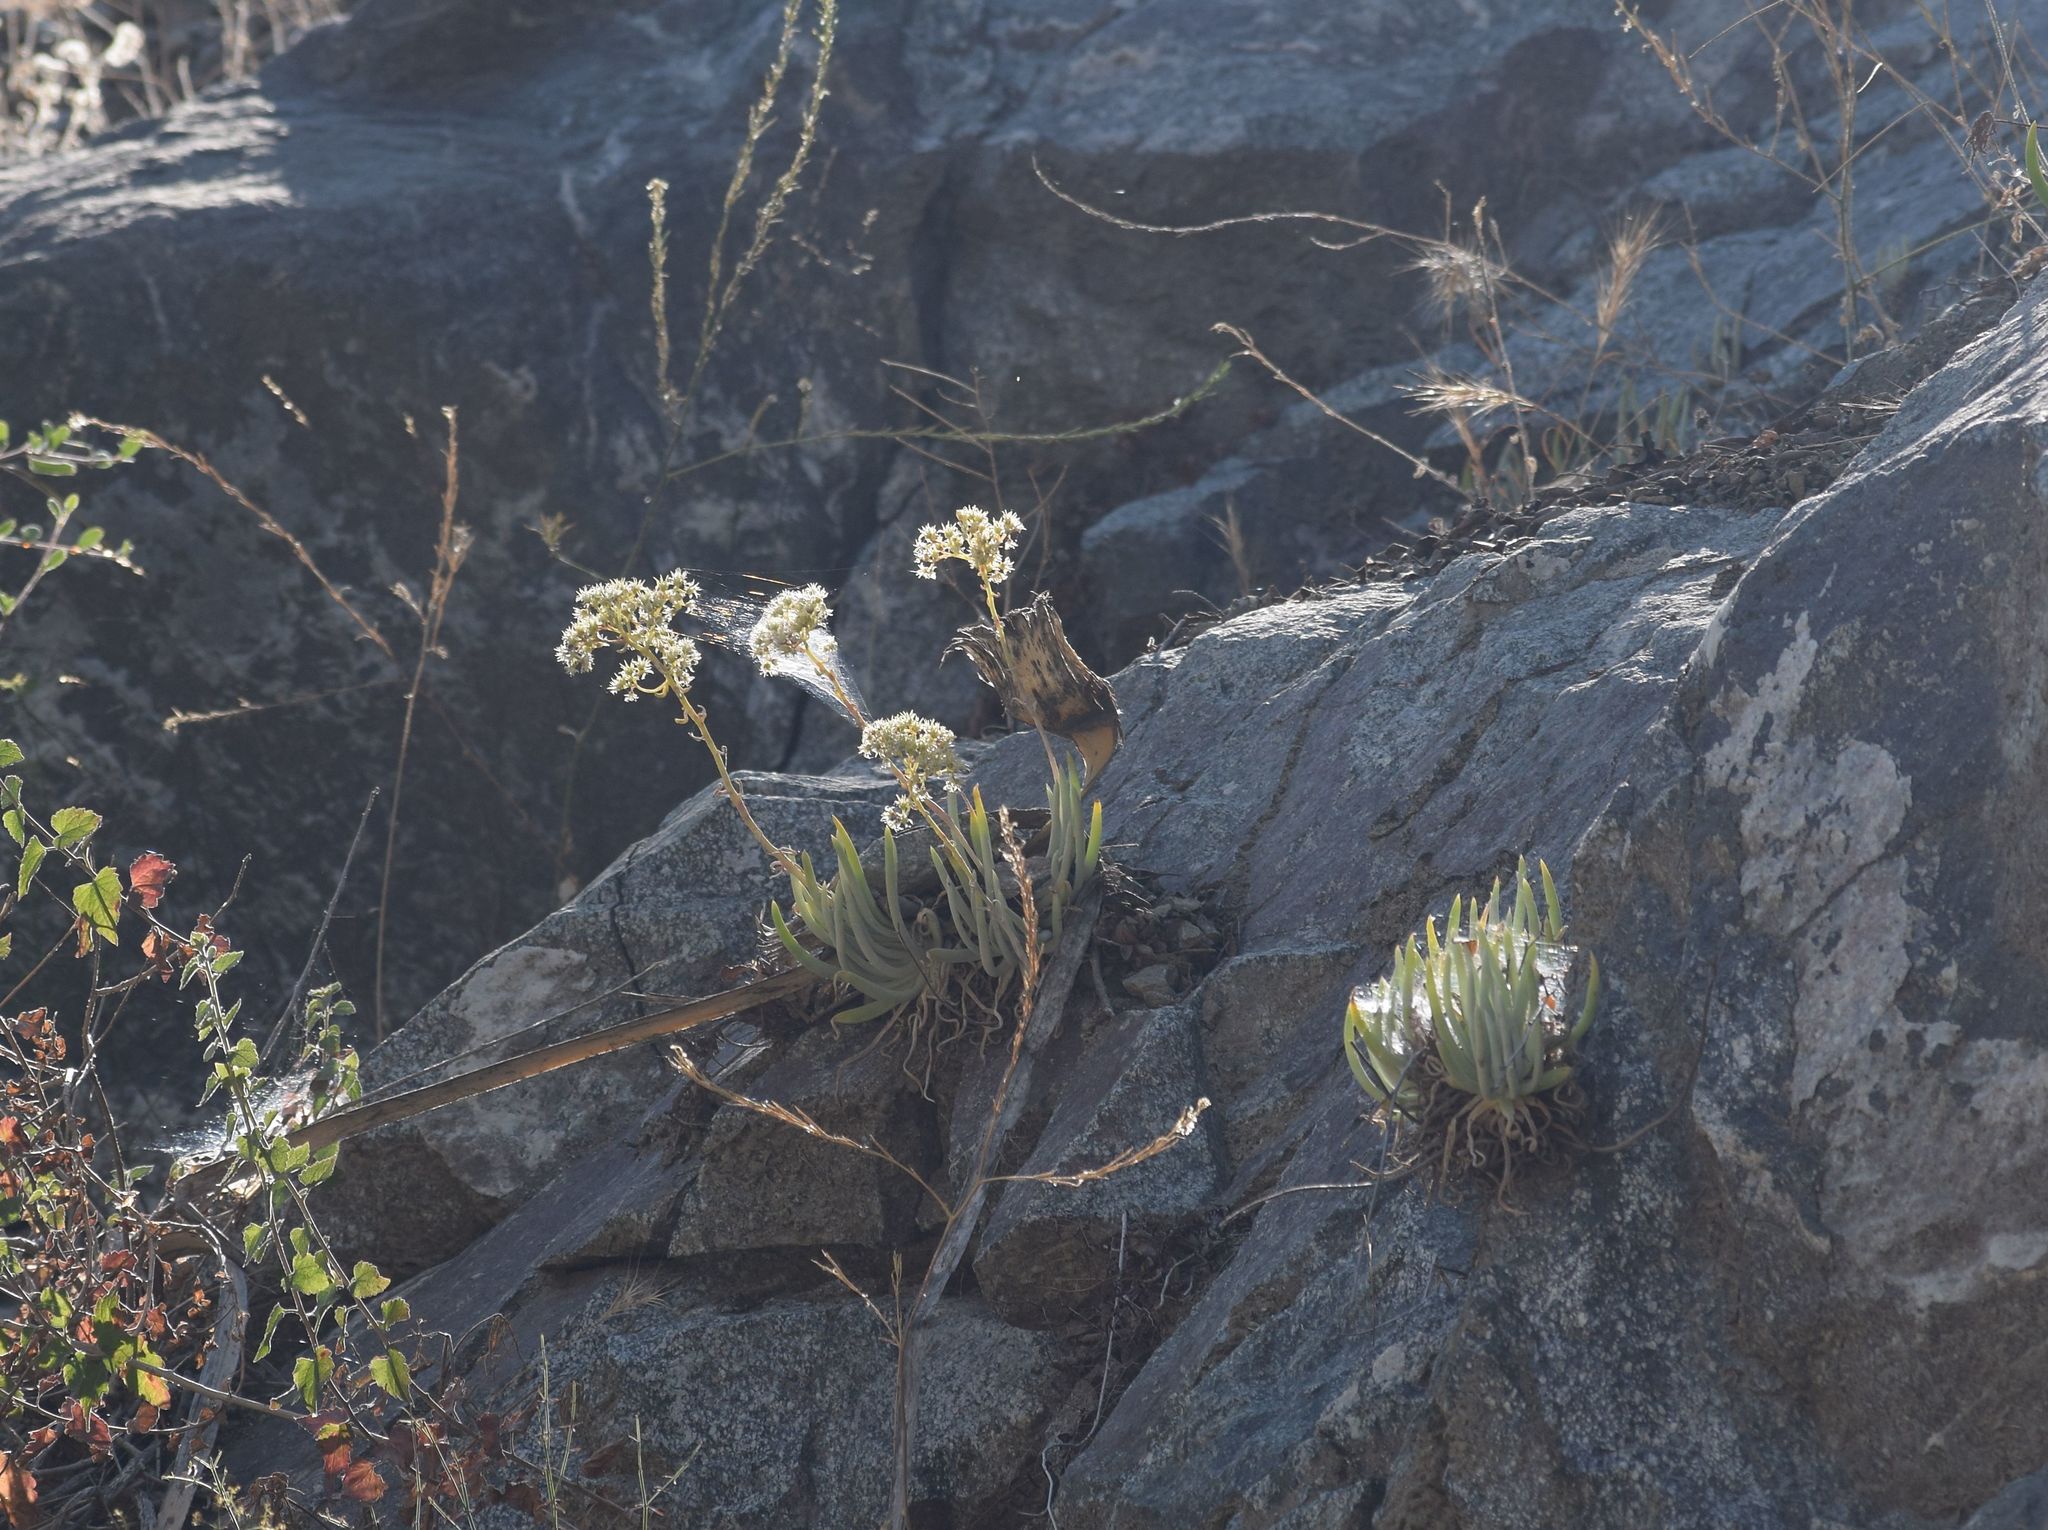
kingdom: Plantae
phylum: Tracheophyta
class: Magnoliopsida
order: Saxifragales
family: Crassulaceae
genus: Dudleya
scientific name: Dudleya densiflora
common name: San gabriel mountains dudleya
